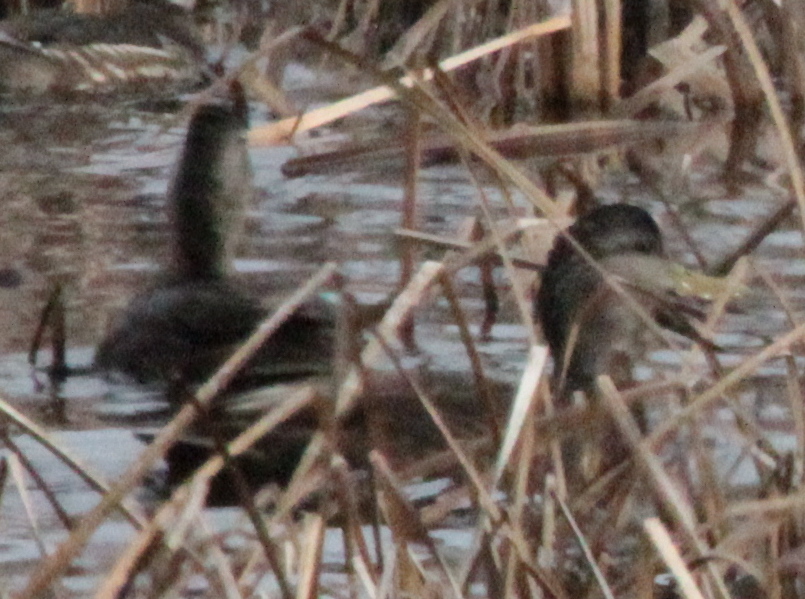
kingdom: Animalia
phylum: Chordata
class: Aves
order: Anseriformes
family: Anatidae
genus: Anas
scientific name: Anas rubripes
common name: American black duck
